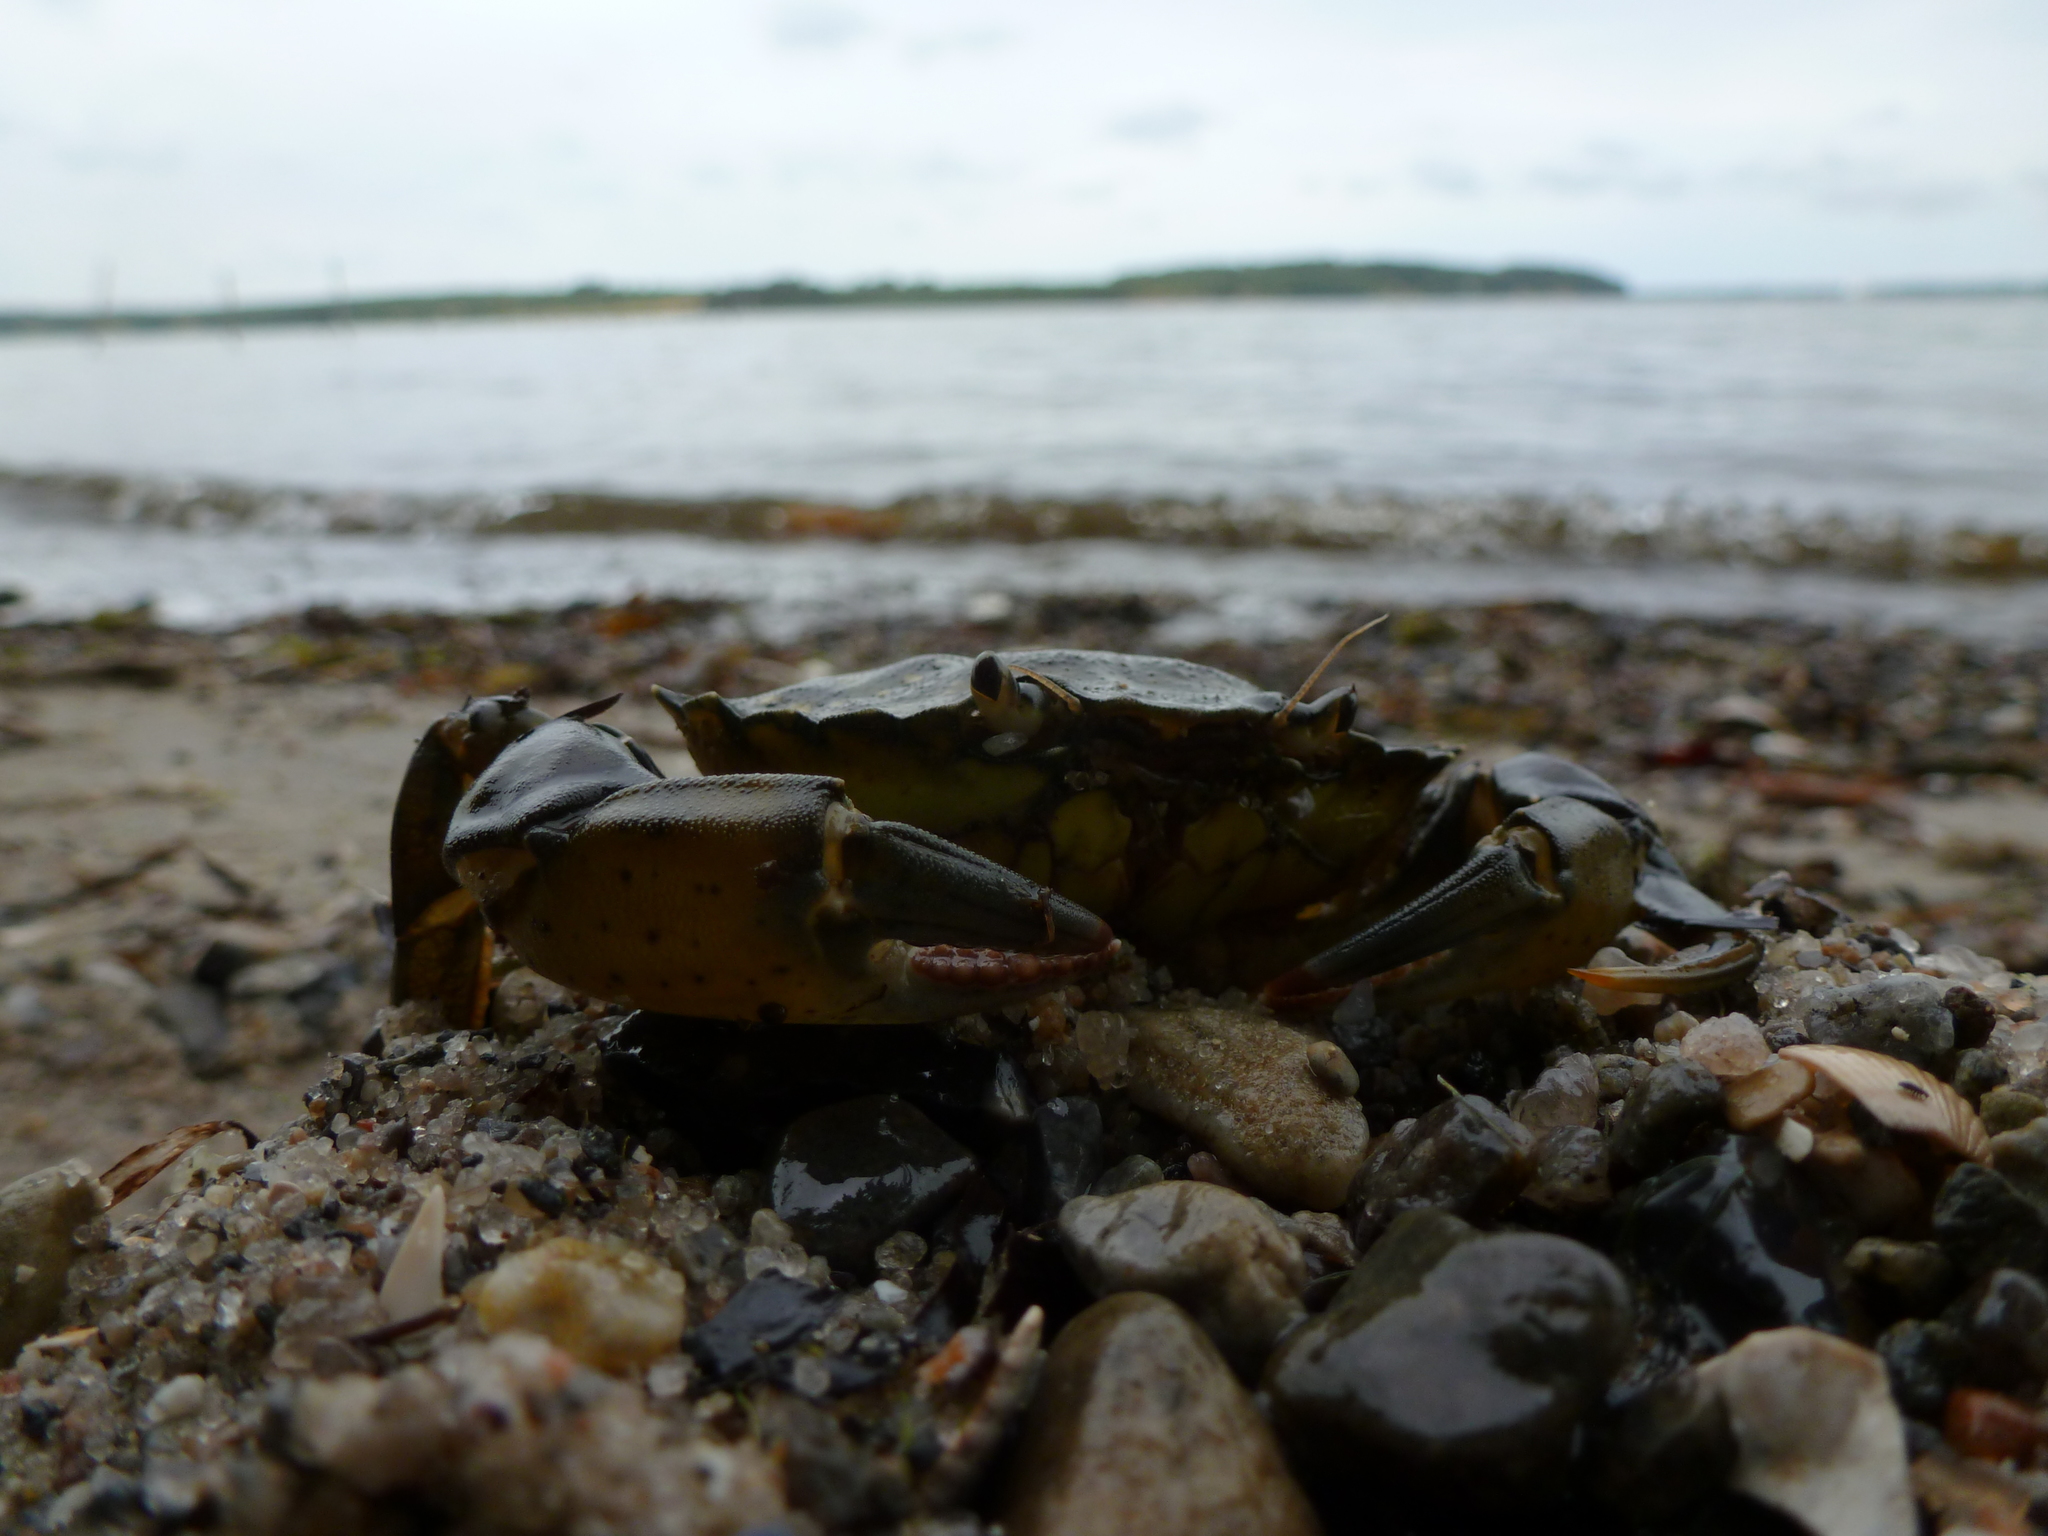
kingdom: Animalia
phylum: Arthropoda
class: Malacostraca
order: Decapoda
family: Carcinidae
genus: Carcinus
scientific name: Carcinus maenas
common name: European green crab
